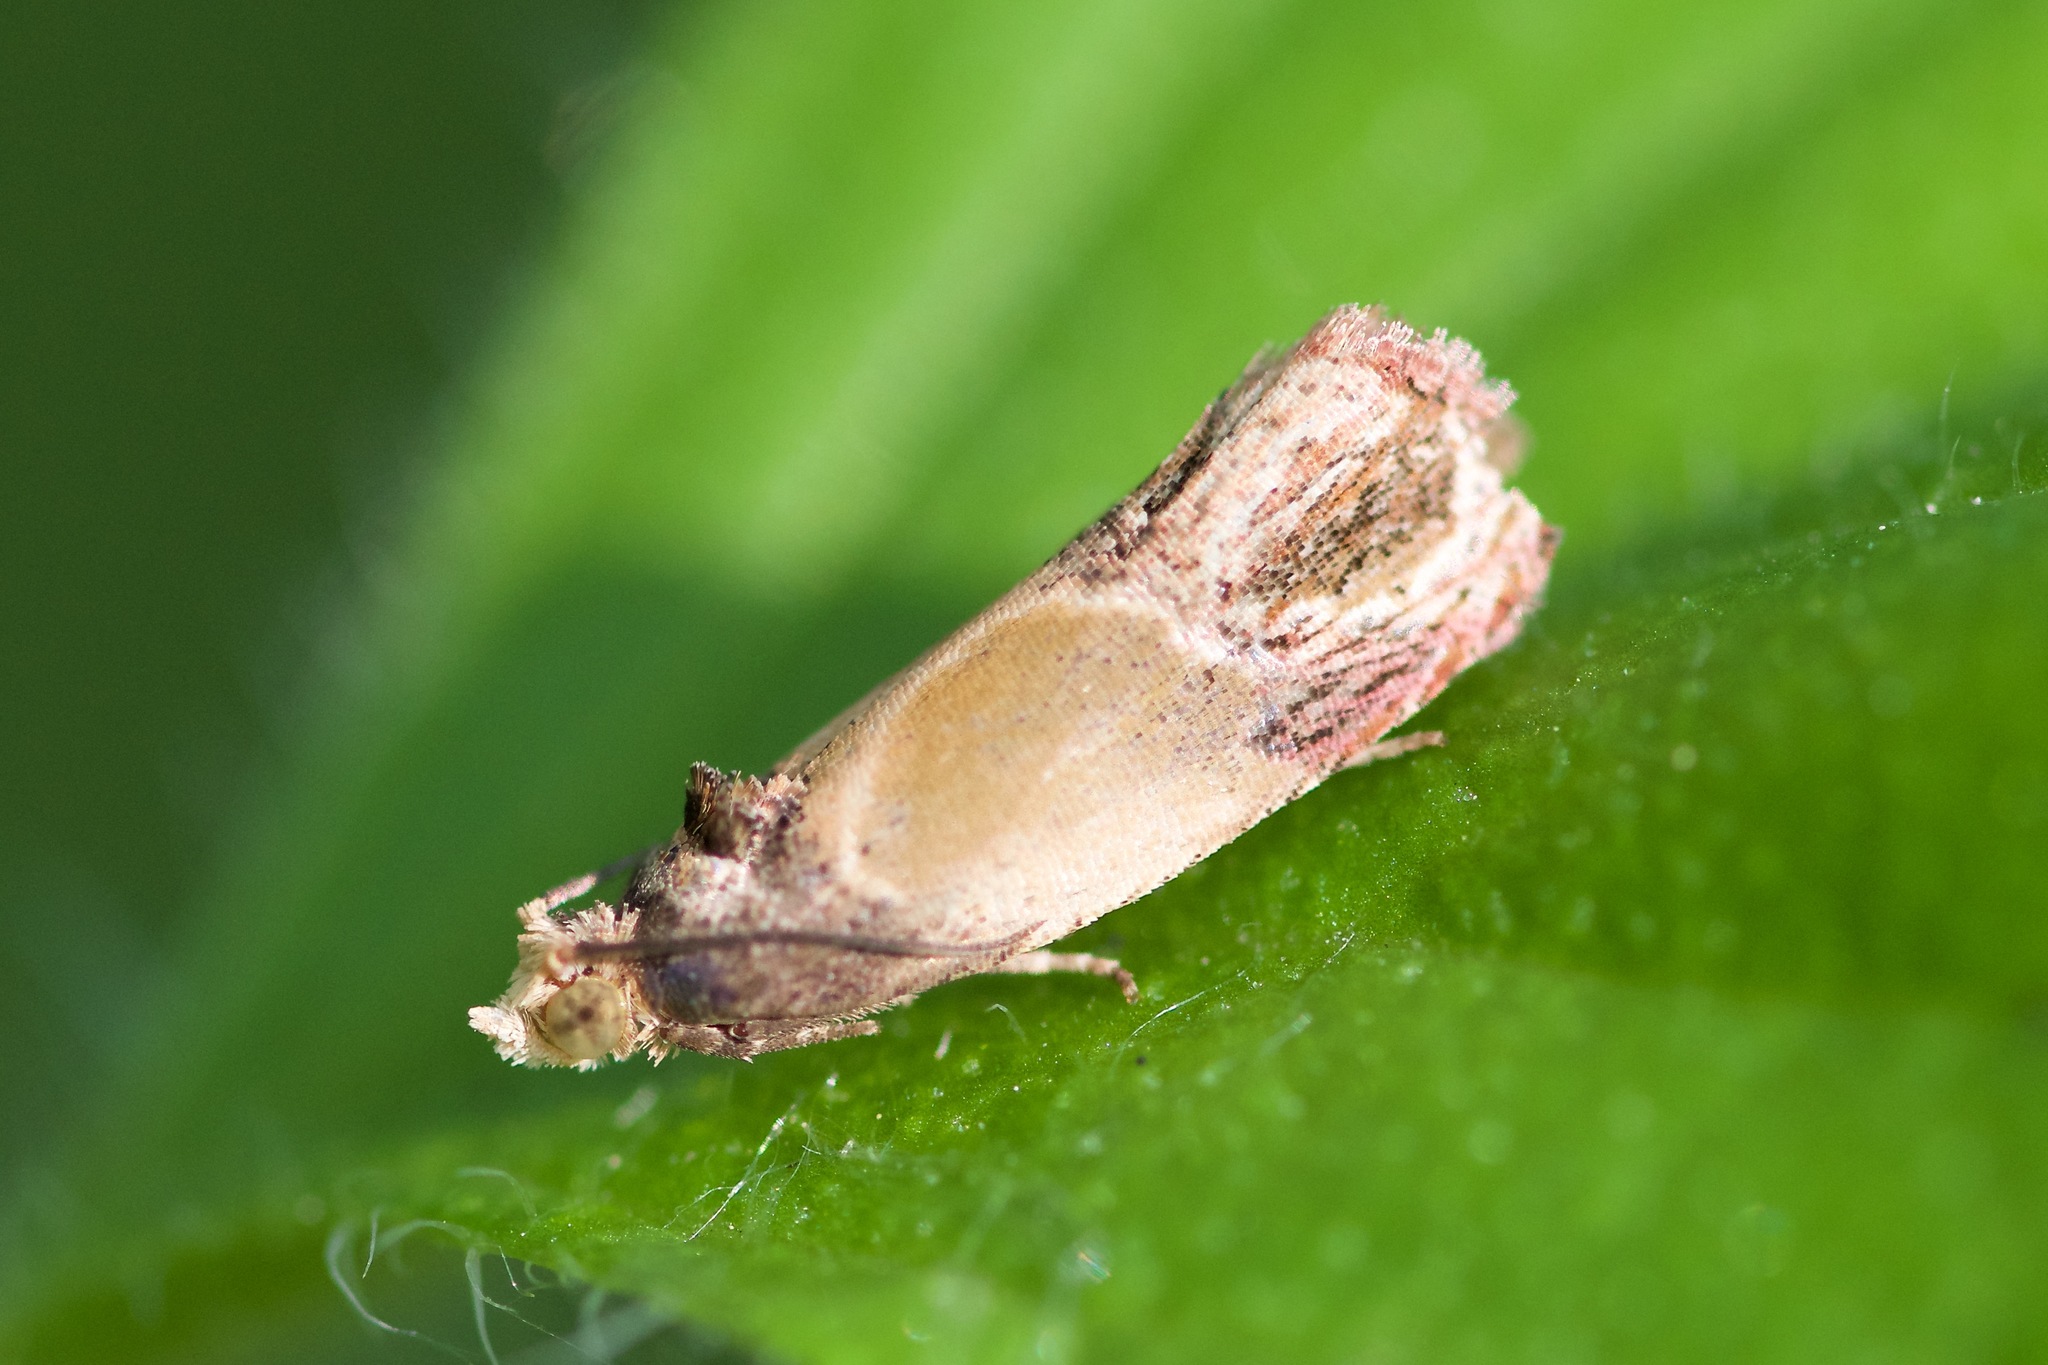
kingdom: Animalia
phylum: Arthropoda
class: Insecta
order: Lepidoptera
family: Tortricidae
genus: Eumarozia
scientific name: Eumarozia malachitana
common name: Sculptured moth
